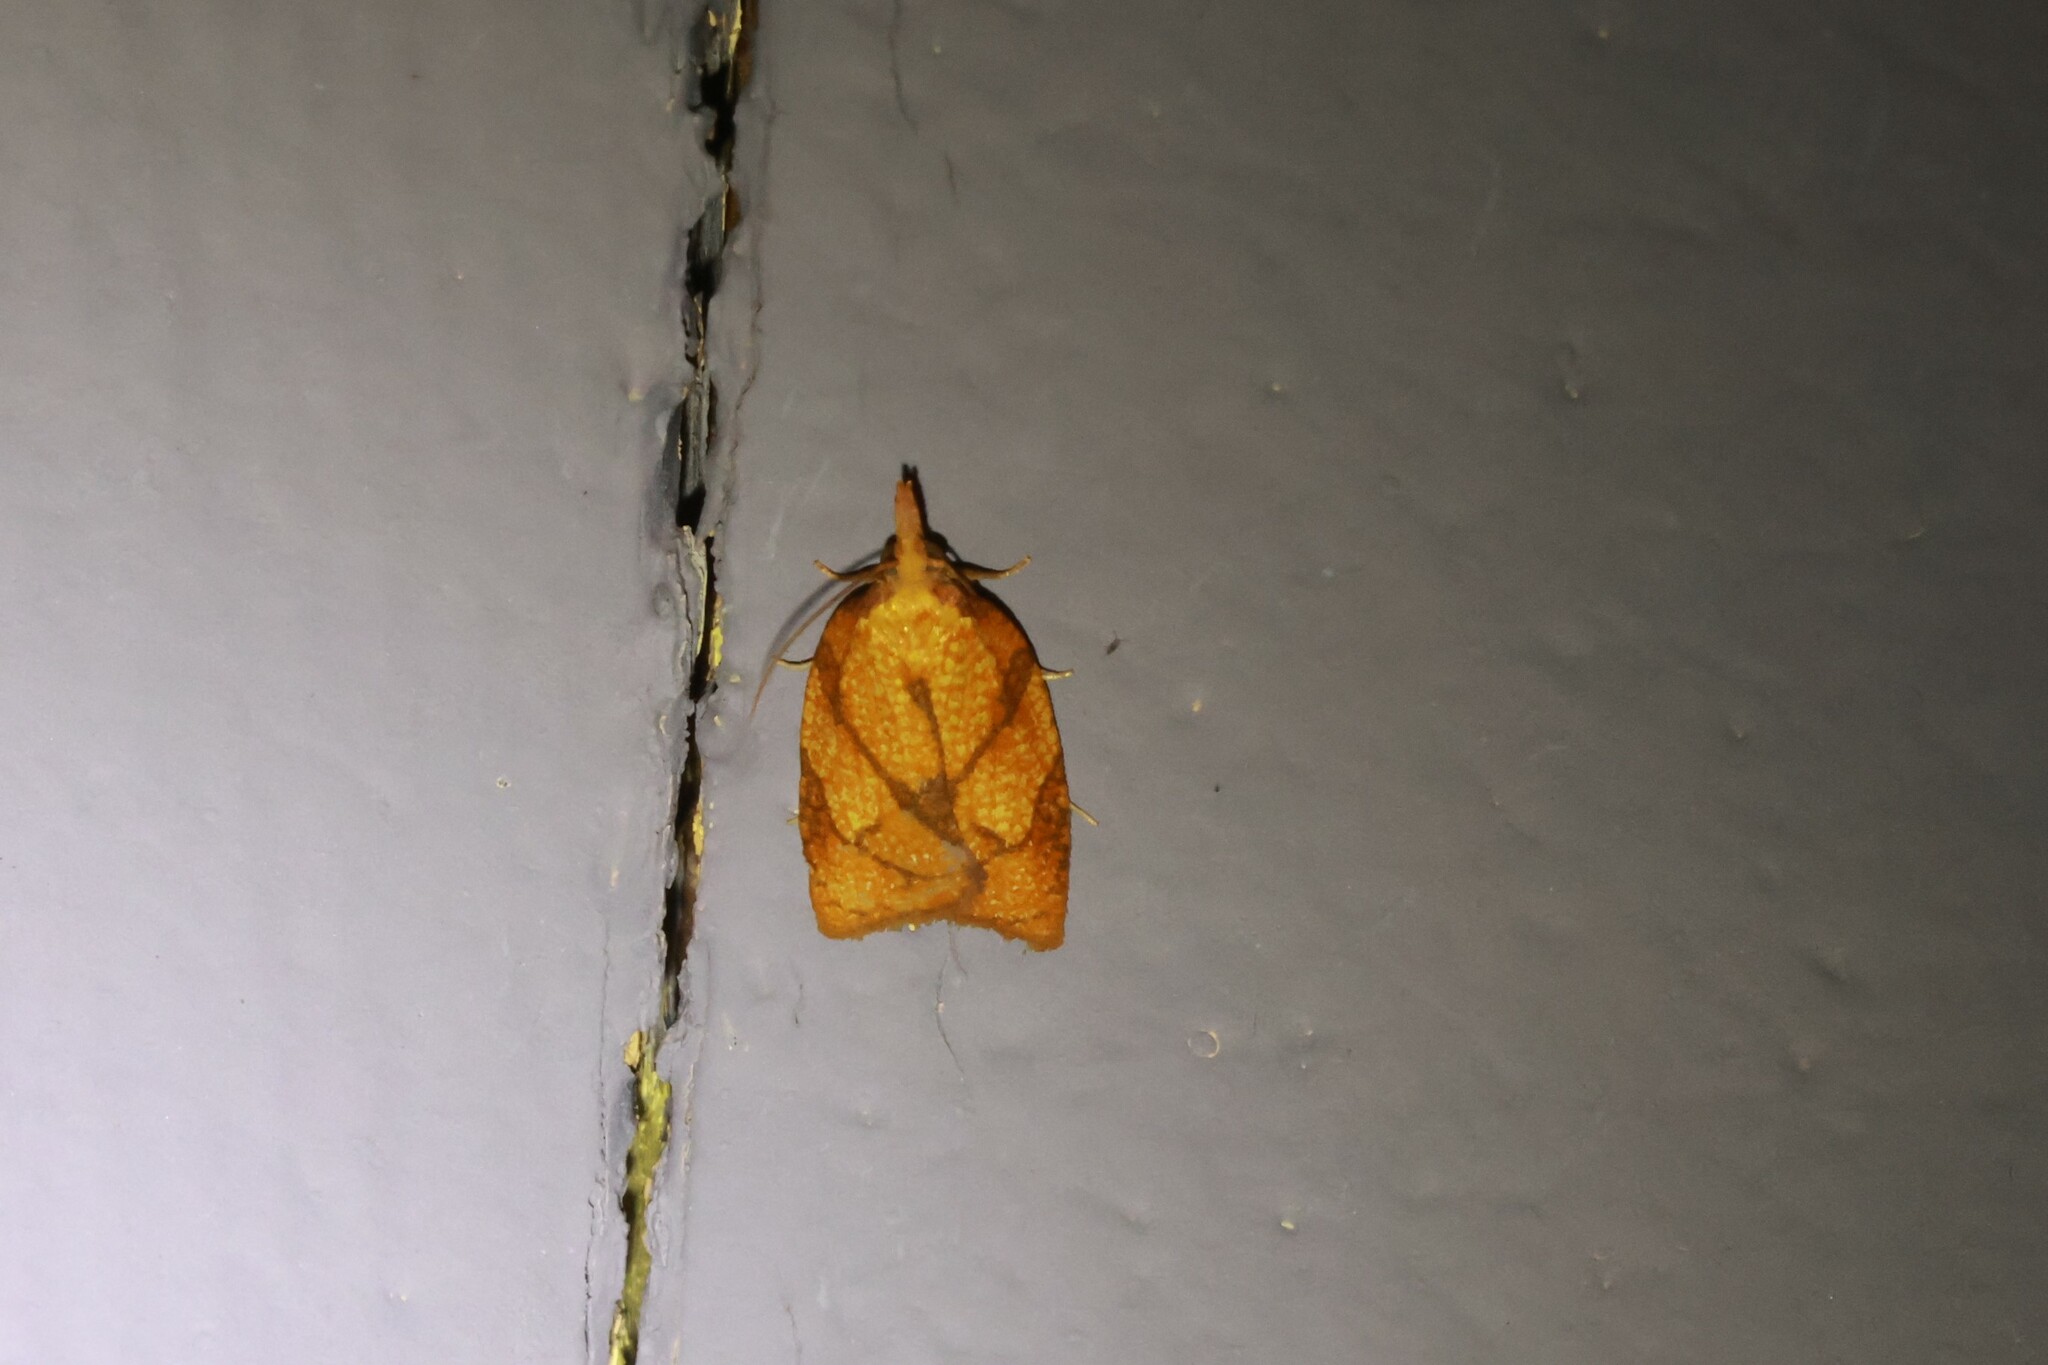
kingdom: Animalia
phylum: Arthropoda
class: Insecta
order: Lepidoptera
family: Tortricidae
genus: Cenopis
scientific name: Cenopis reticulatana
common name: Reticulated fruitworm moth
